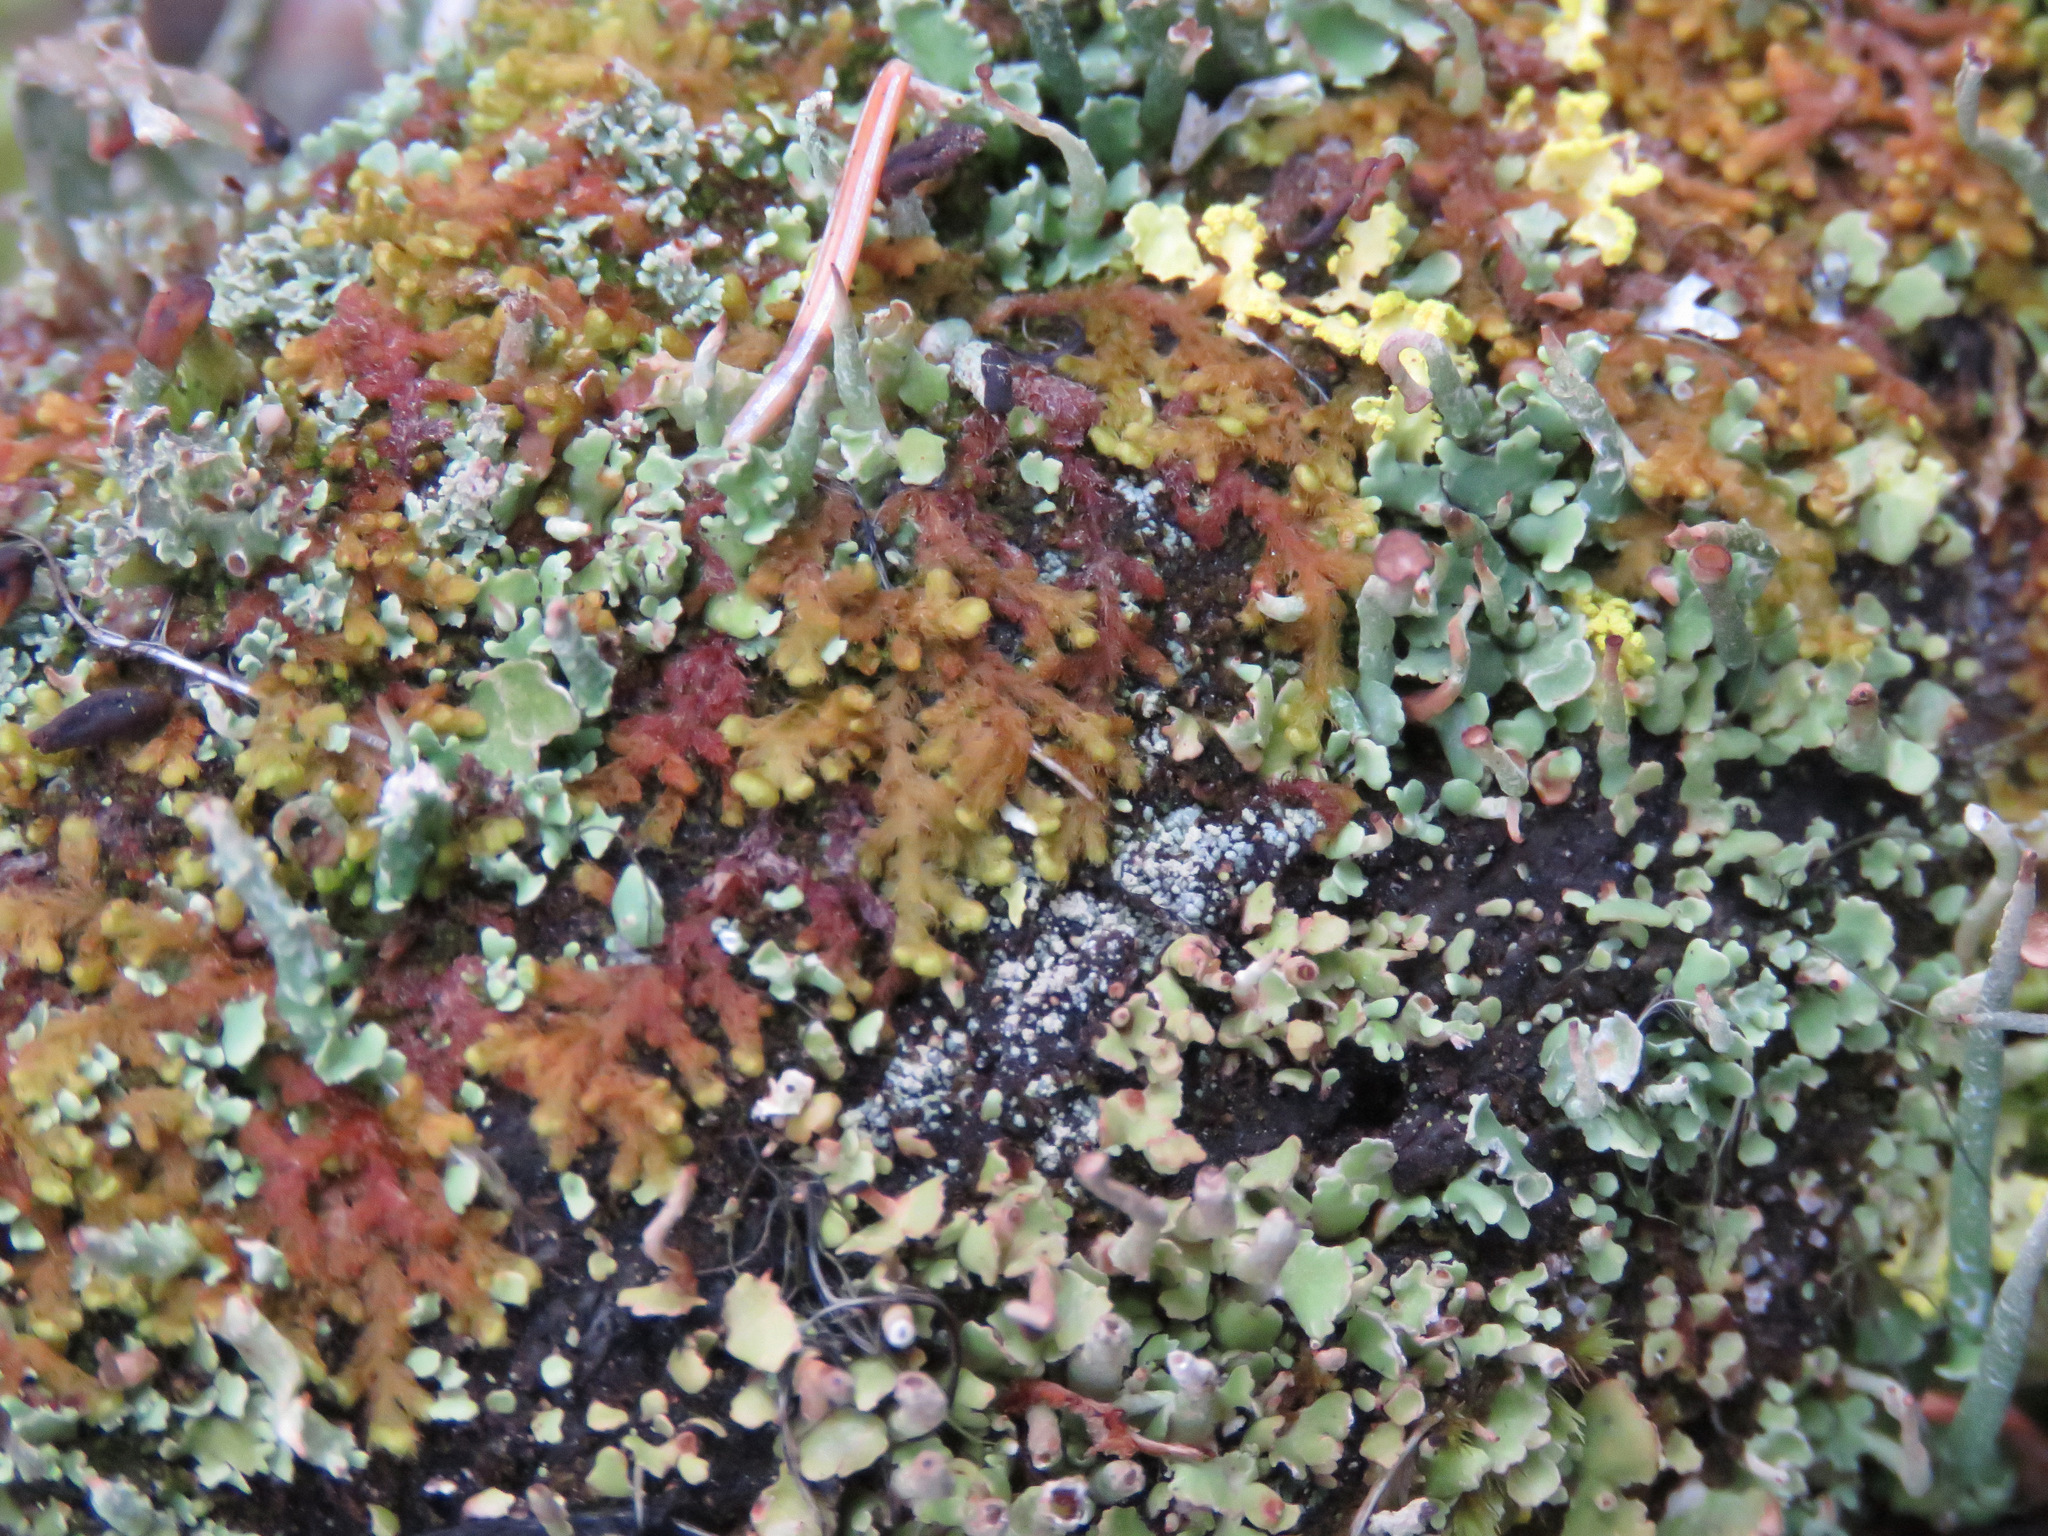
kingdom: Plantae
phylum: Marchantiophyta
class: Jungermanniopsida
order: Ptilidiales
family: Ptilidiaceae
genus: Ptilidium
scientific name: Ptilidium pulcherrimum
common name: Tree fringewort
